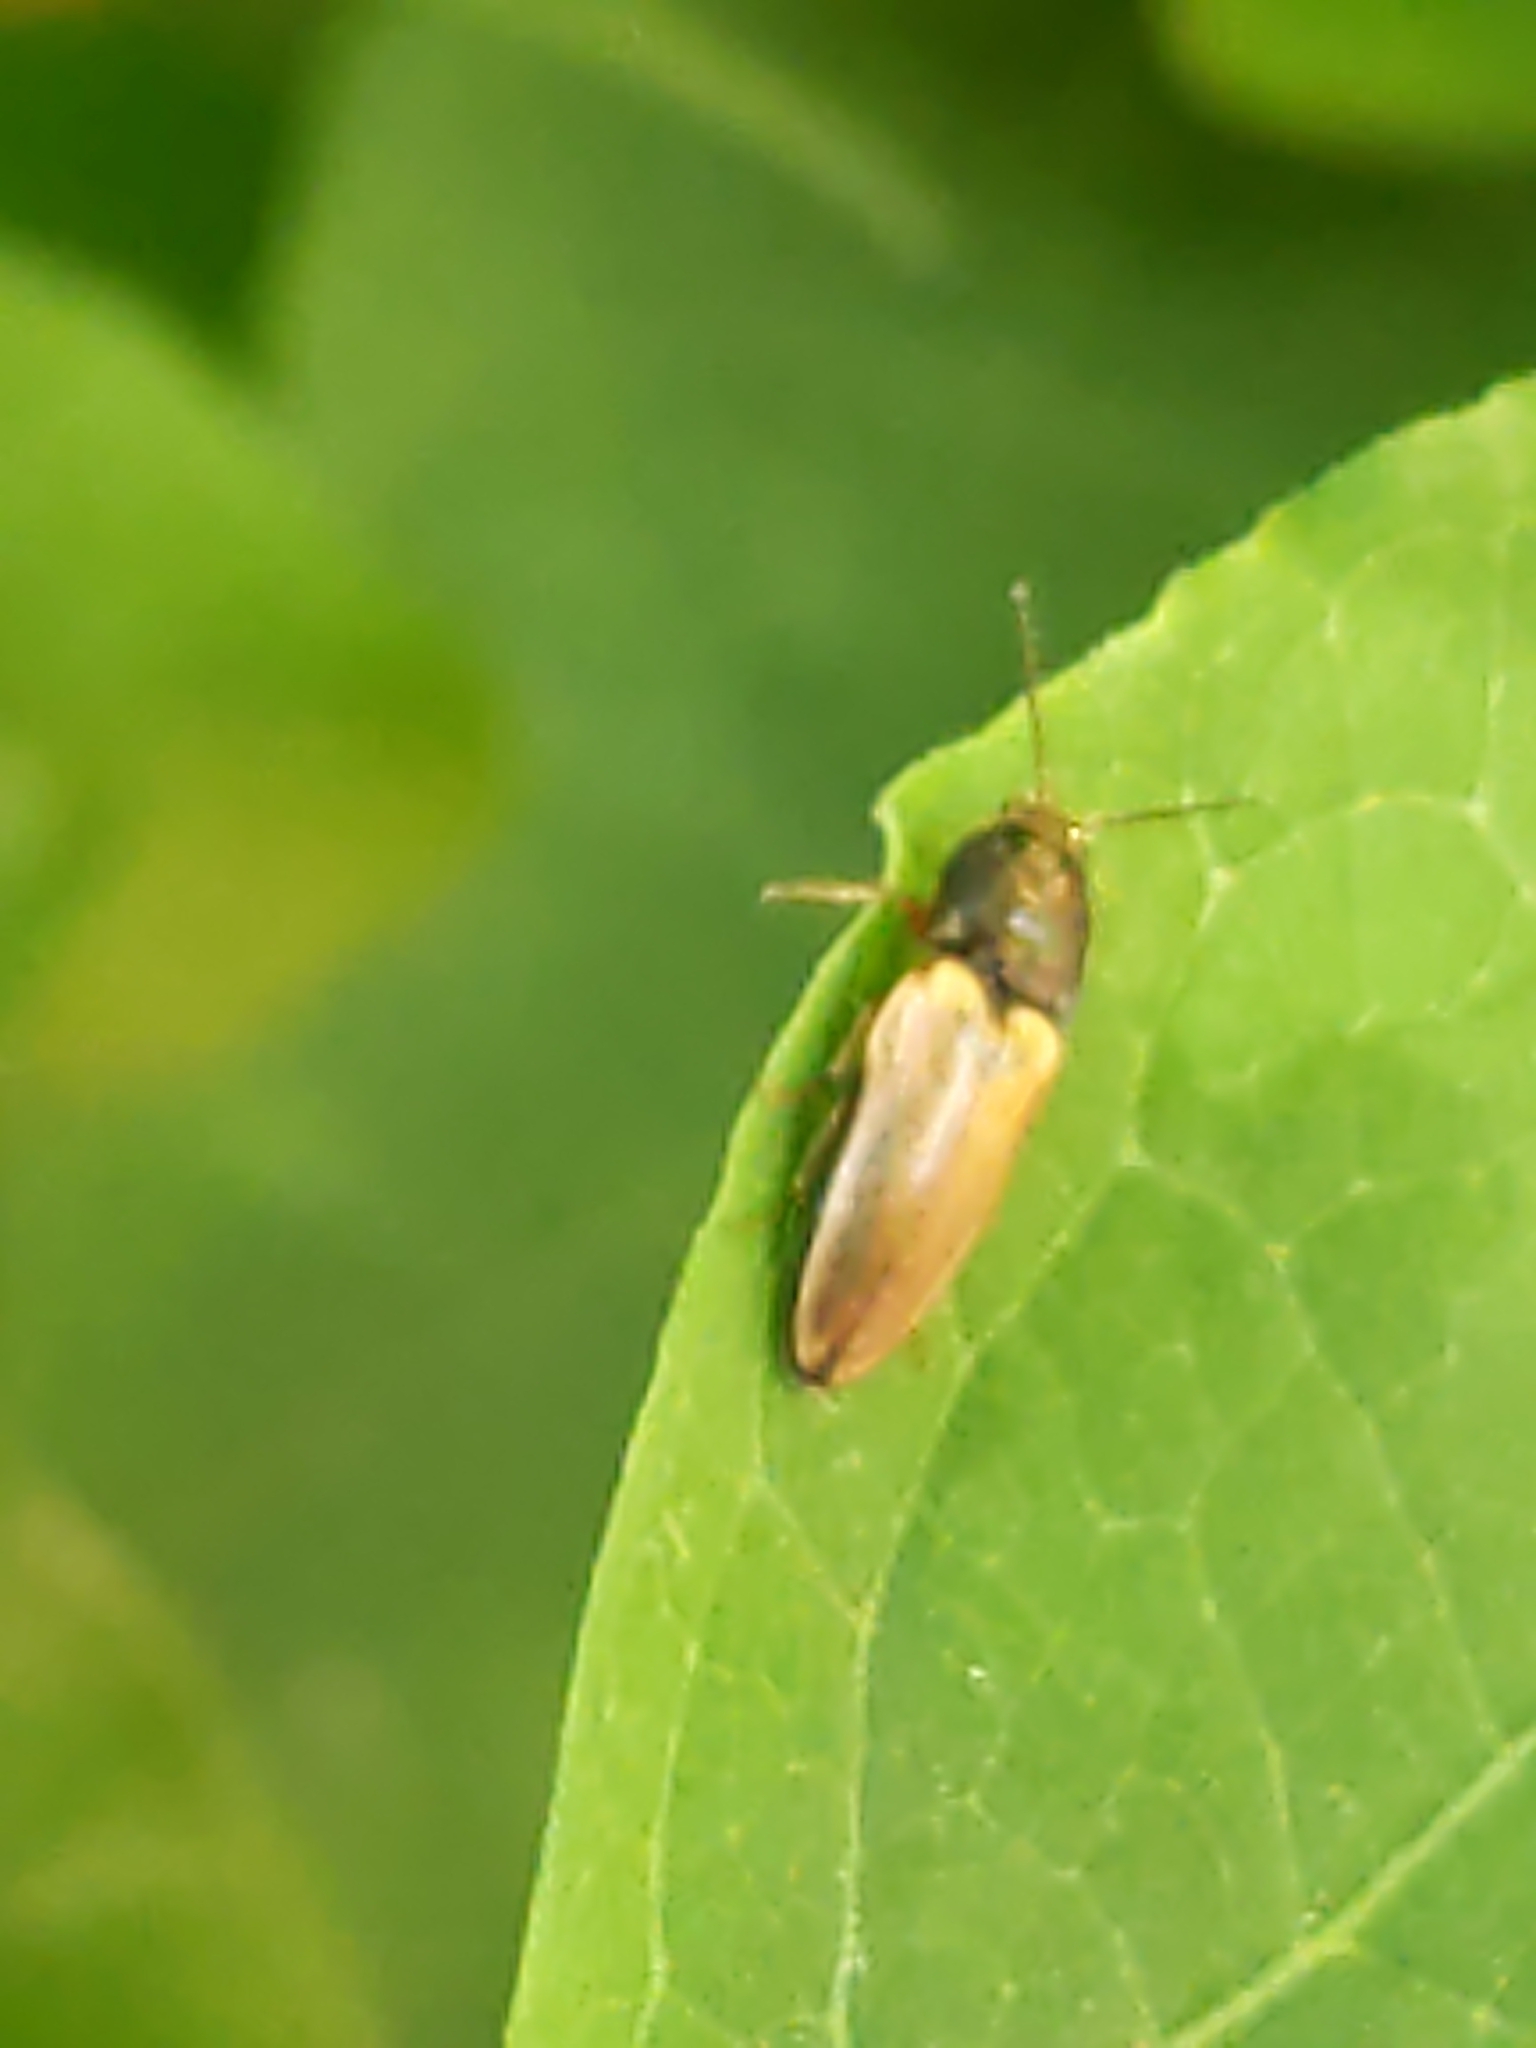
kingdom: Animalia
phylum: Arthropoda
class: Insecta
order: Coleoptera
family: Elateridae
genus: Ampedus
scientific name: Ampedus nigricollis
